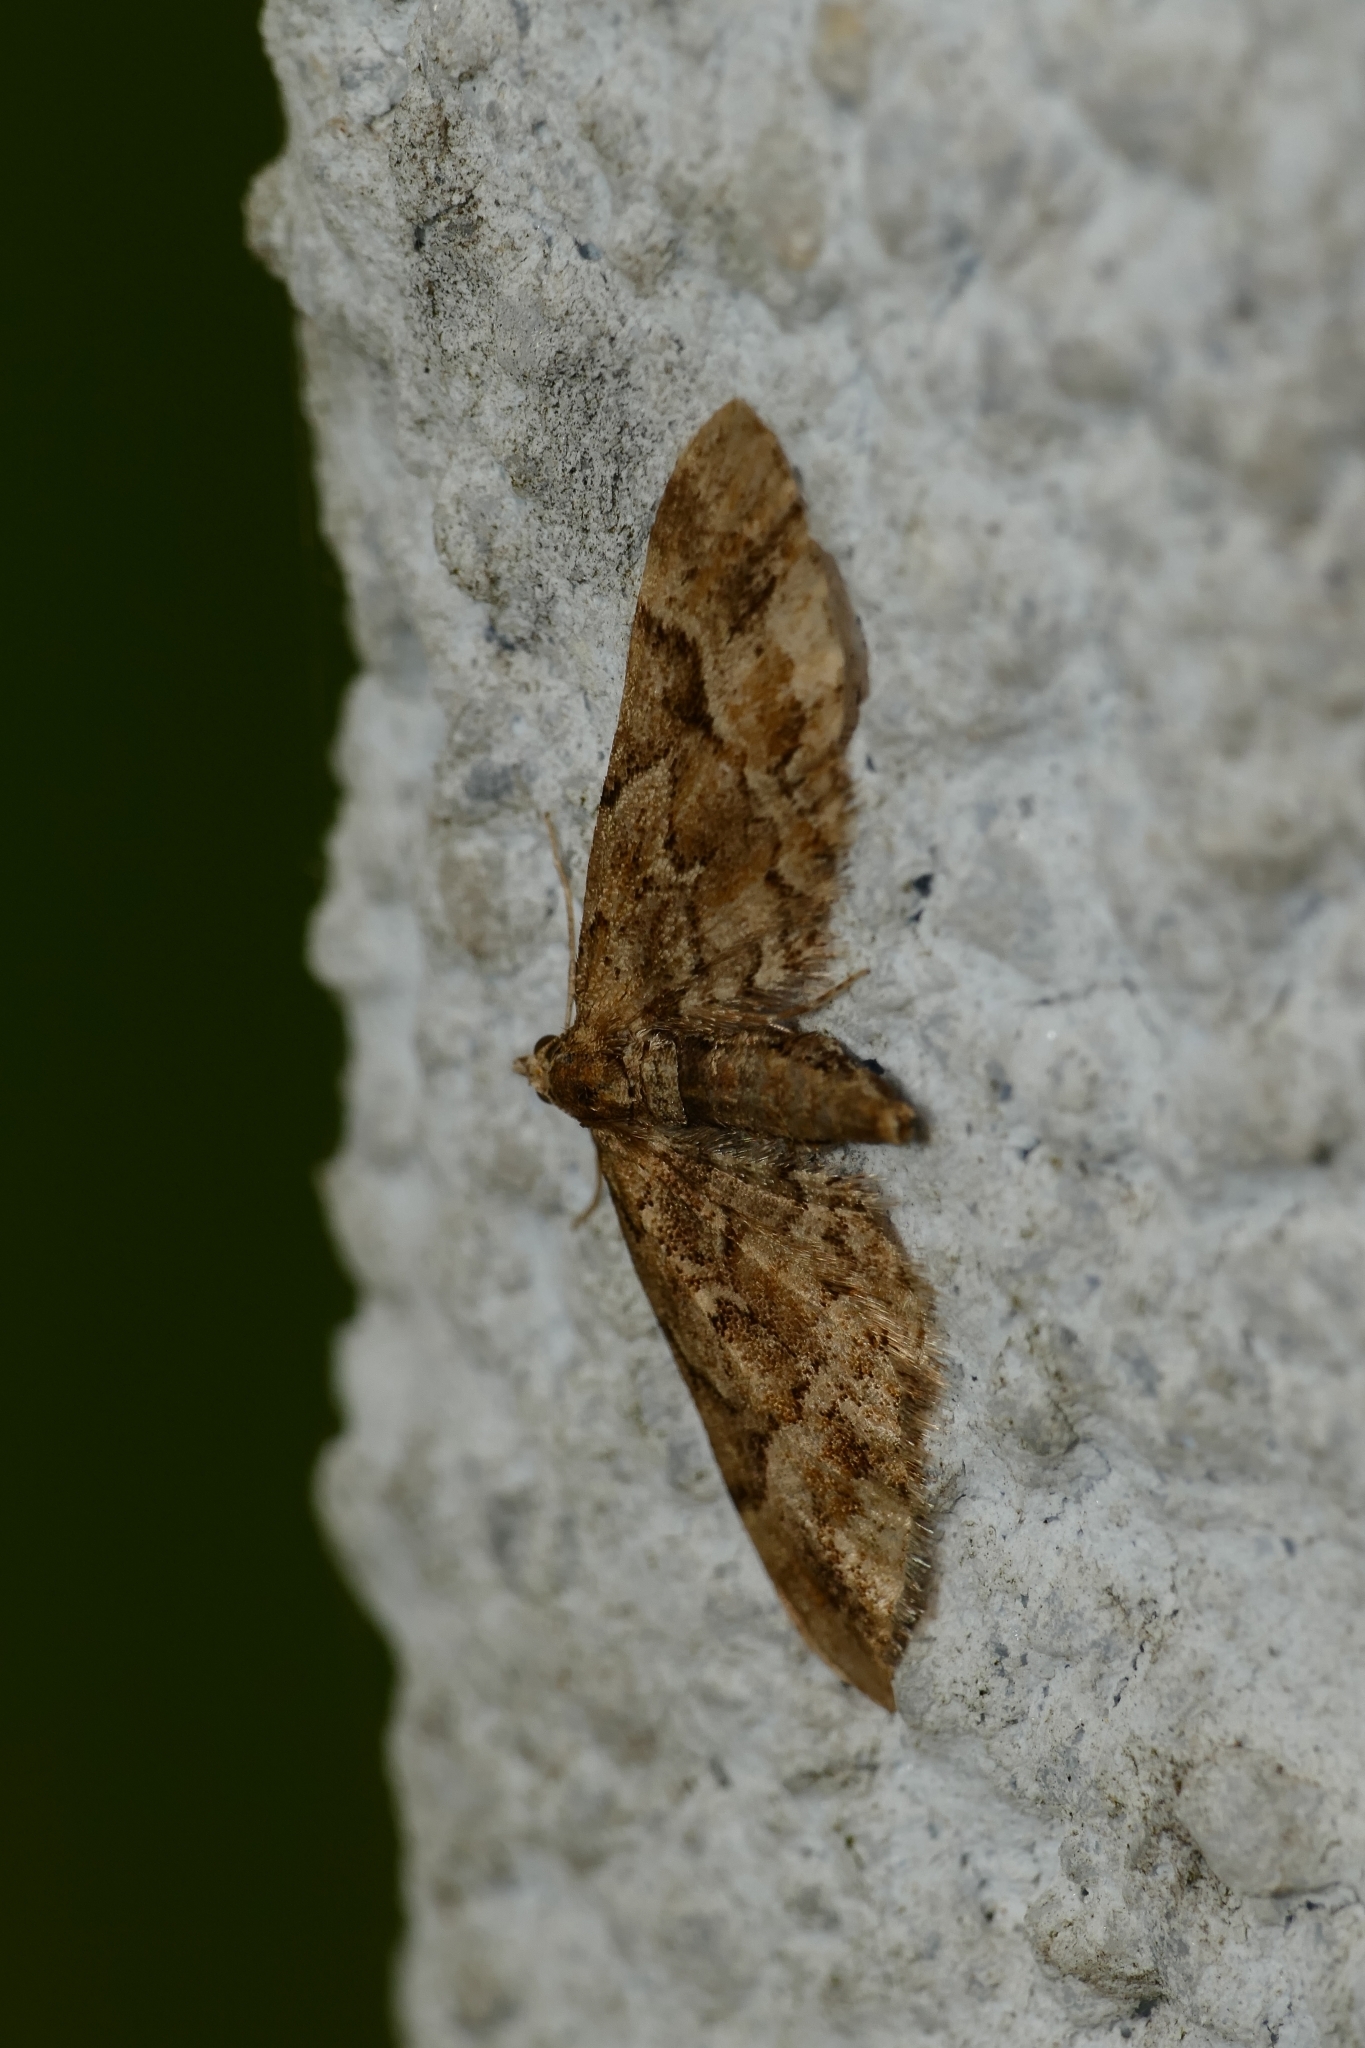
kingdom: Animalia
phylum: Arthropoda
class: Insecta
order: Lepidoptera
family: Geometridae
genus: Eupithecia
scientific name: Eupithecia lanceata
